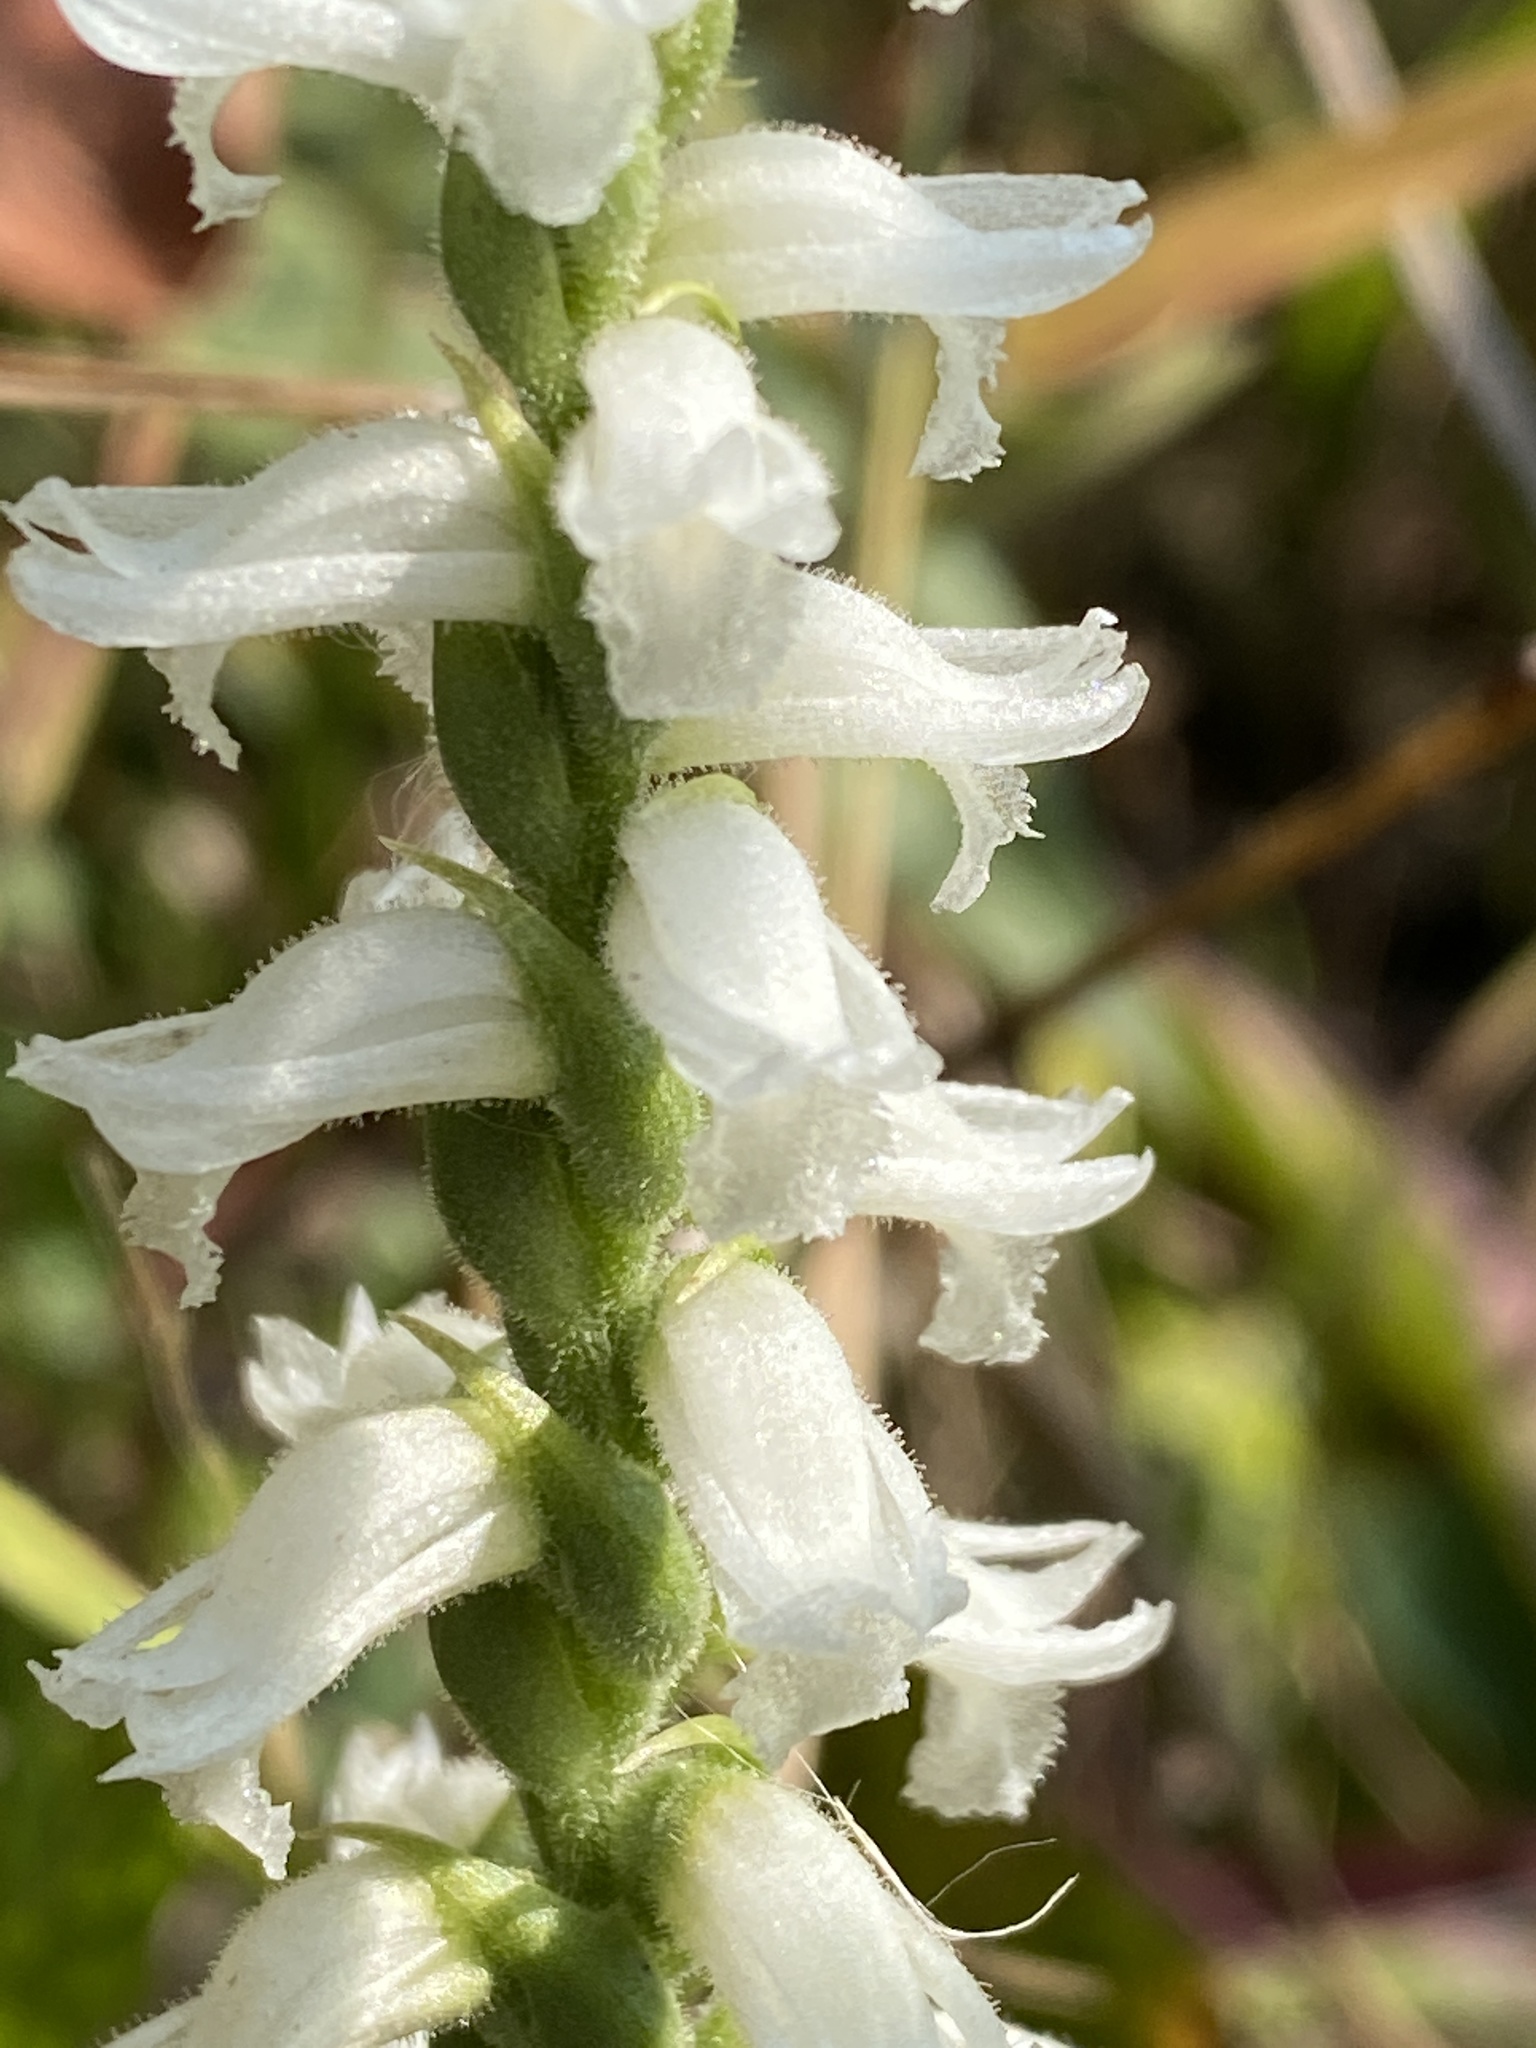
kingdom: Plantae
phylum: Tracheophyta
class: Liliopsida
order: Asparagales
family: Orchidaceae
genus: Spiranthes
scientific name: Spiranthes incurva
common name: Sphinx ladies'-tresses
